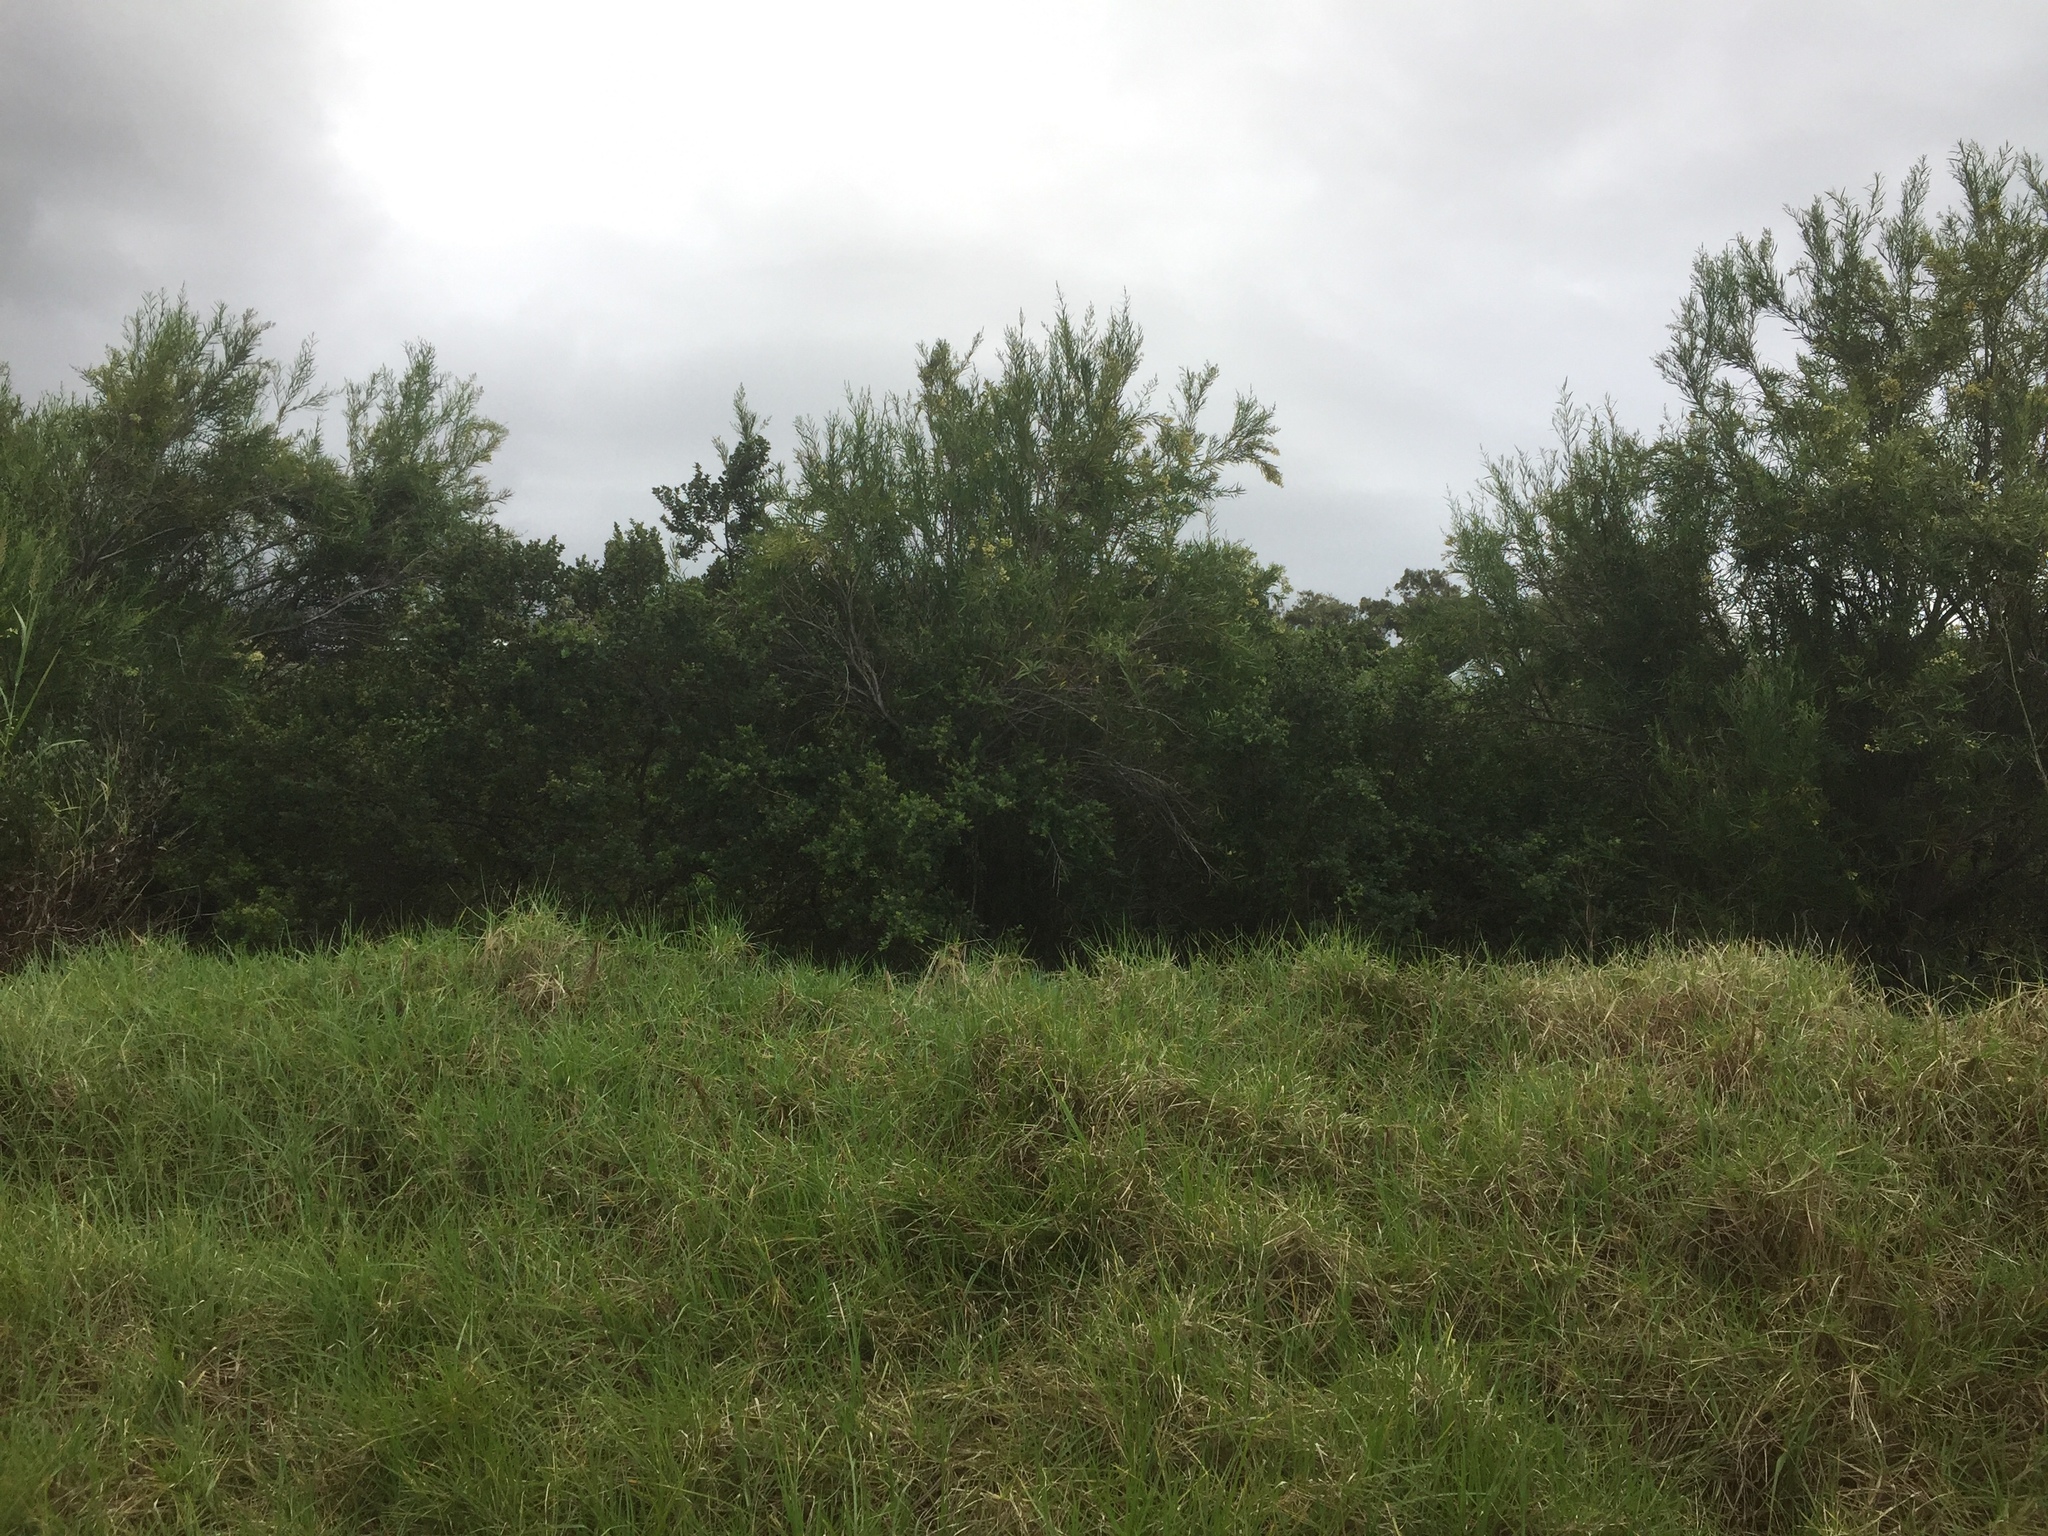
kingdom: Plantae
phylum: Tracheophyta
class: Magnoliopsida
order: Lamiales
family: Scrophulariaceae
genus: Freylinia
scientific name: Freylinia lanceolata
